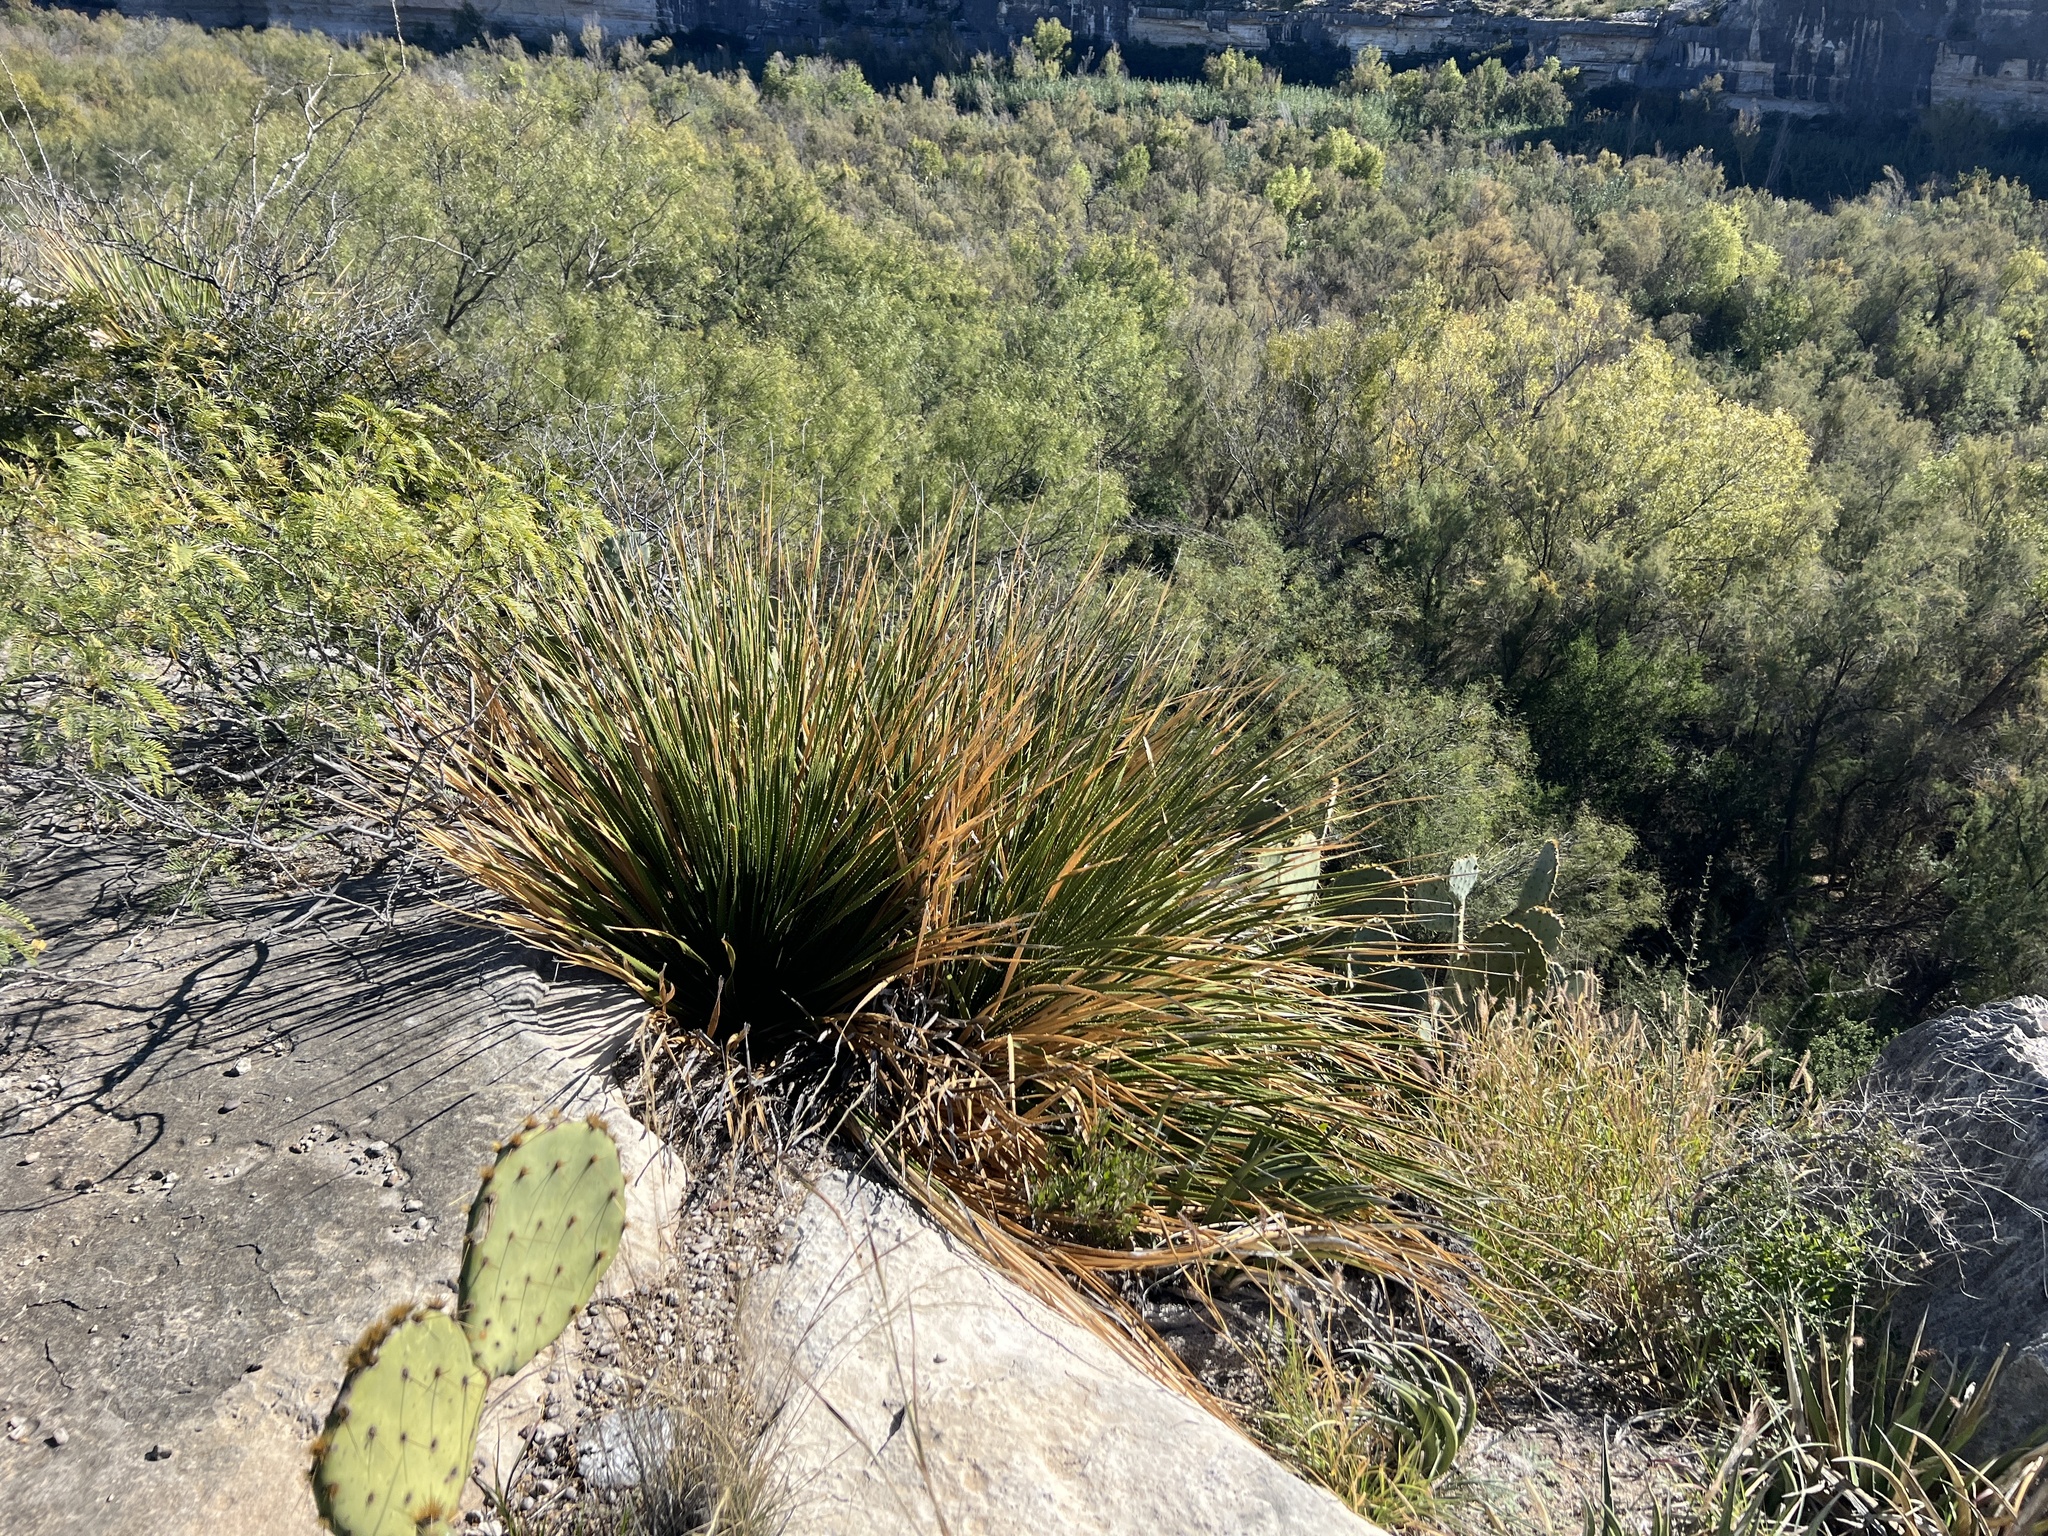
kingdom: Plantae
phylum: Tracheophyta
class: Liliopsida
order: Asparagales
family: Asparagaceae
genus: Dasylirion
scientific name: Dasylirion texanum
